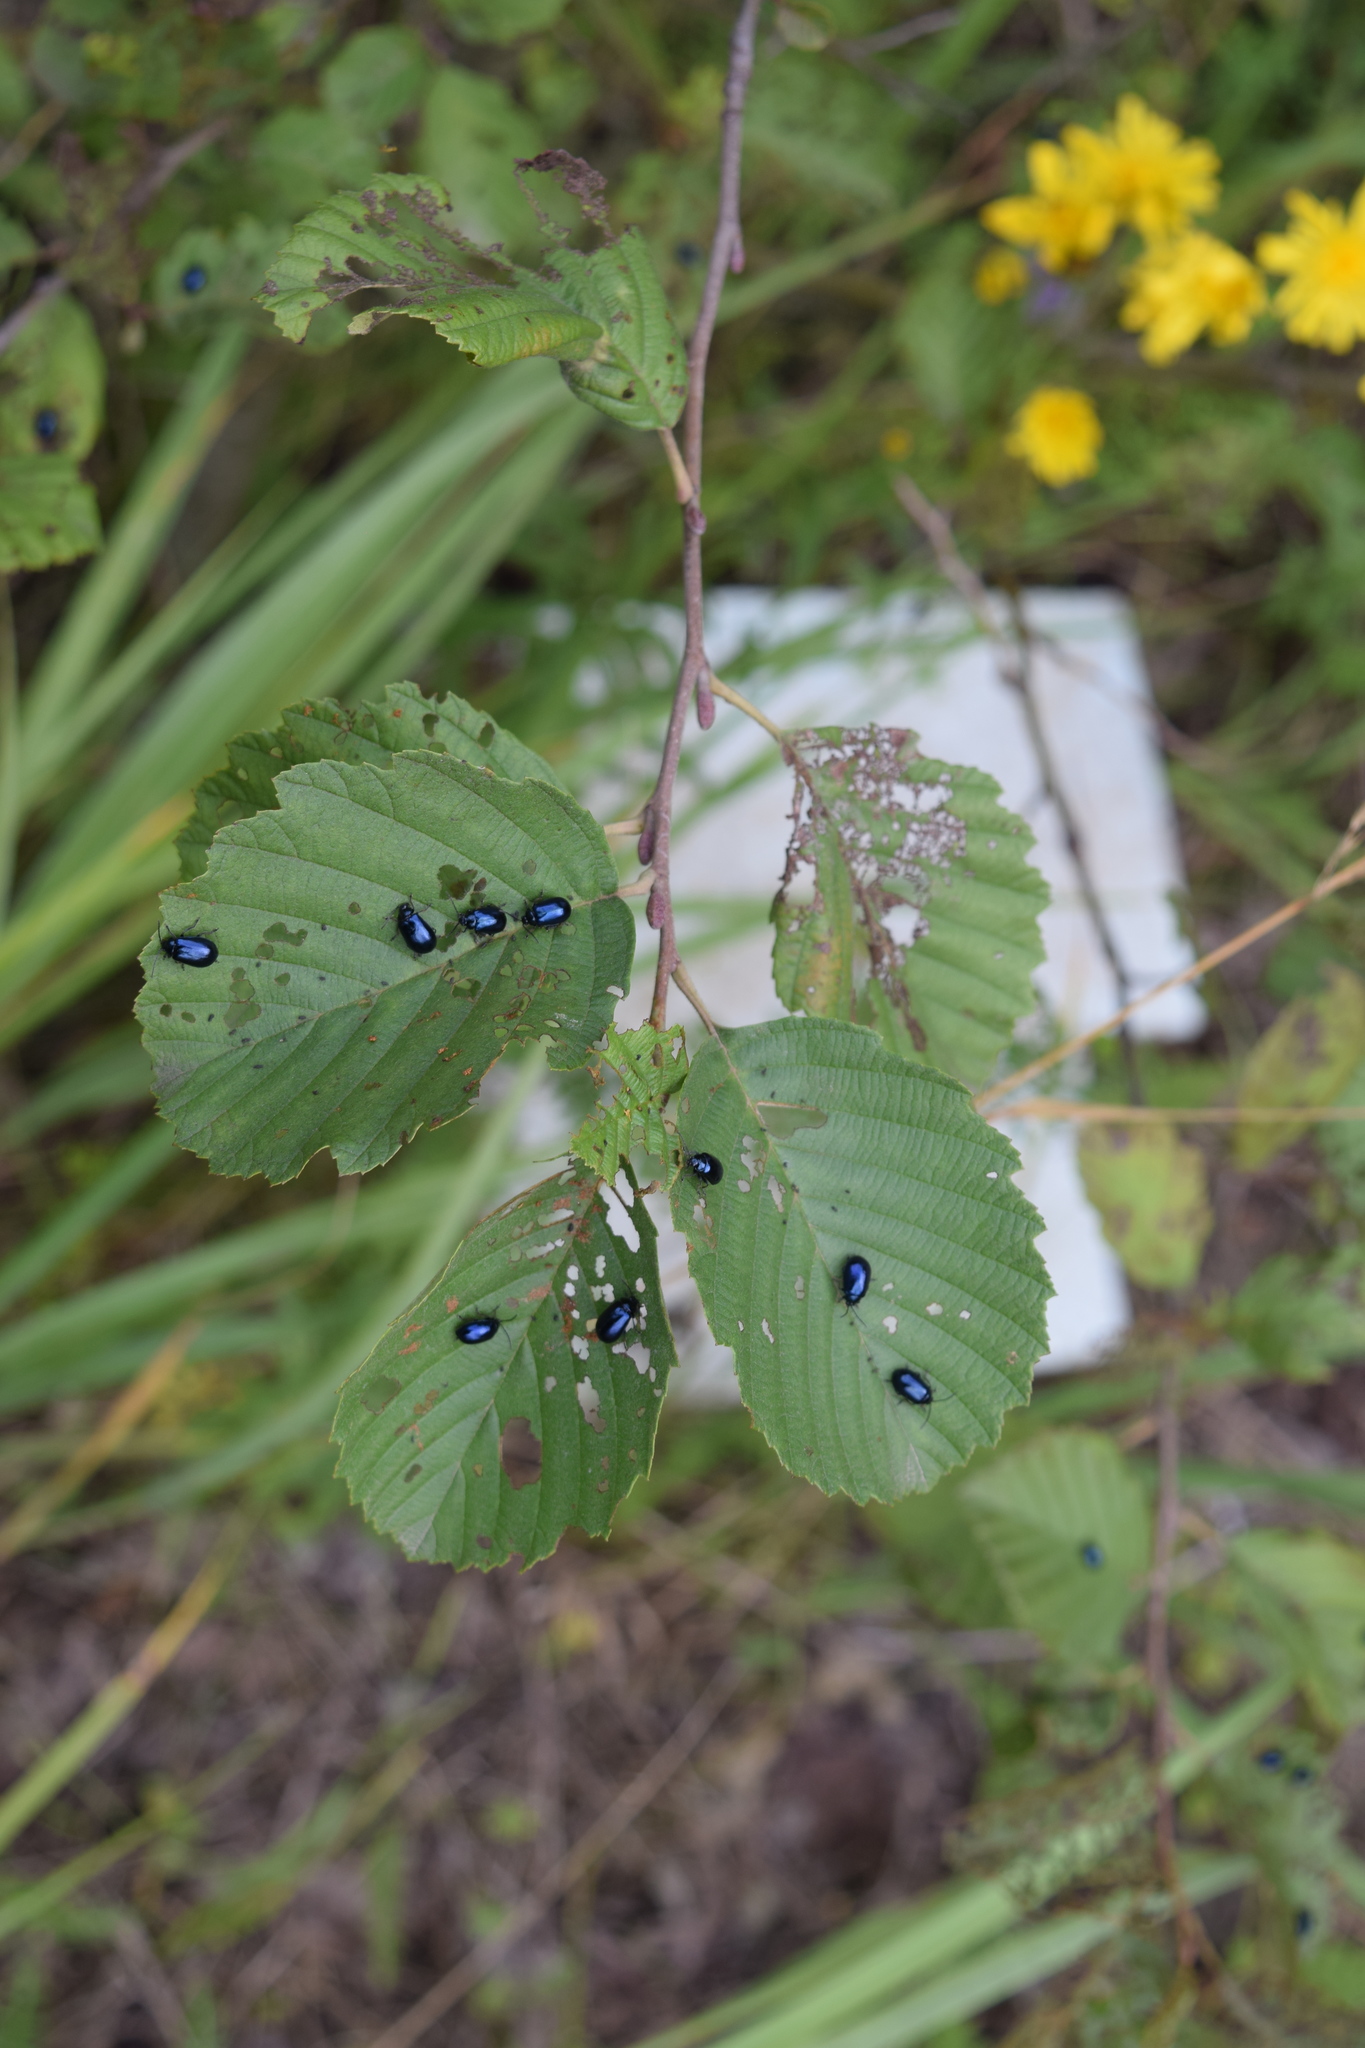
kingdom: Plantae
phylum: Tracheophyta
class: Magnoliopsida
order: Fagales
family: Betulaceae
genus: Alnus
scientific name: Alnus incana
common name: Grey alder
